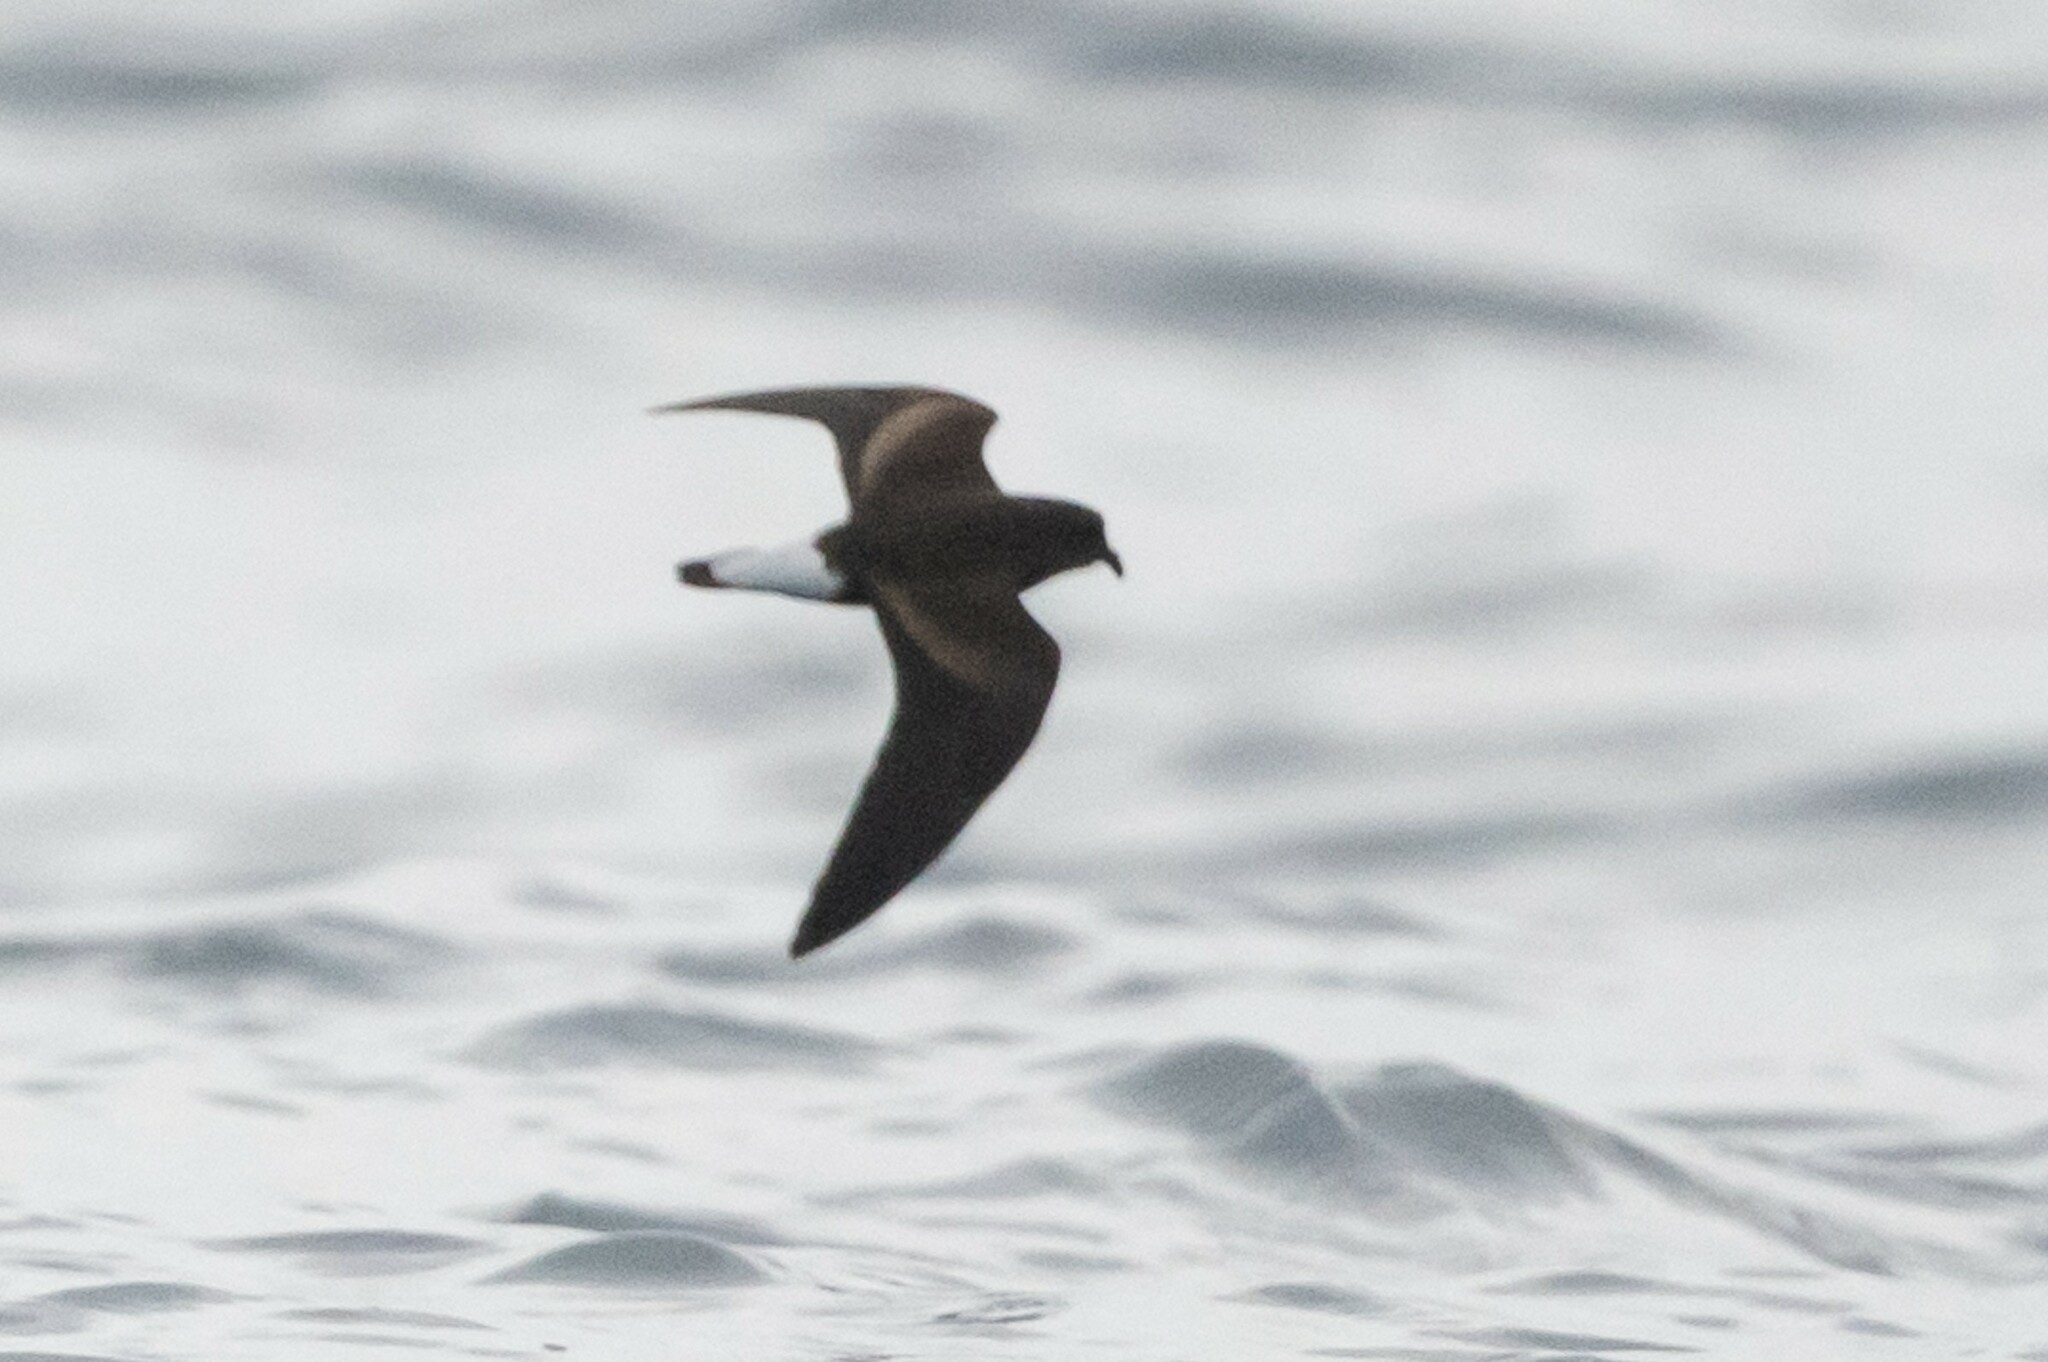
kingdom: Animalia
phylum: Chordata
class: Aves
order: Procellariiformes
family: Hydrobatidae
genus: Oceanodroma
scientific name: Oceanodroma tethys
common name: Wedge-rumped storm-petrel
